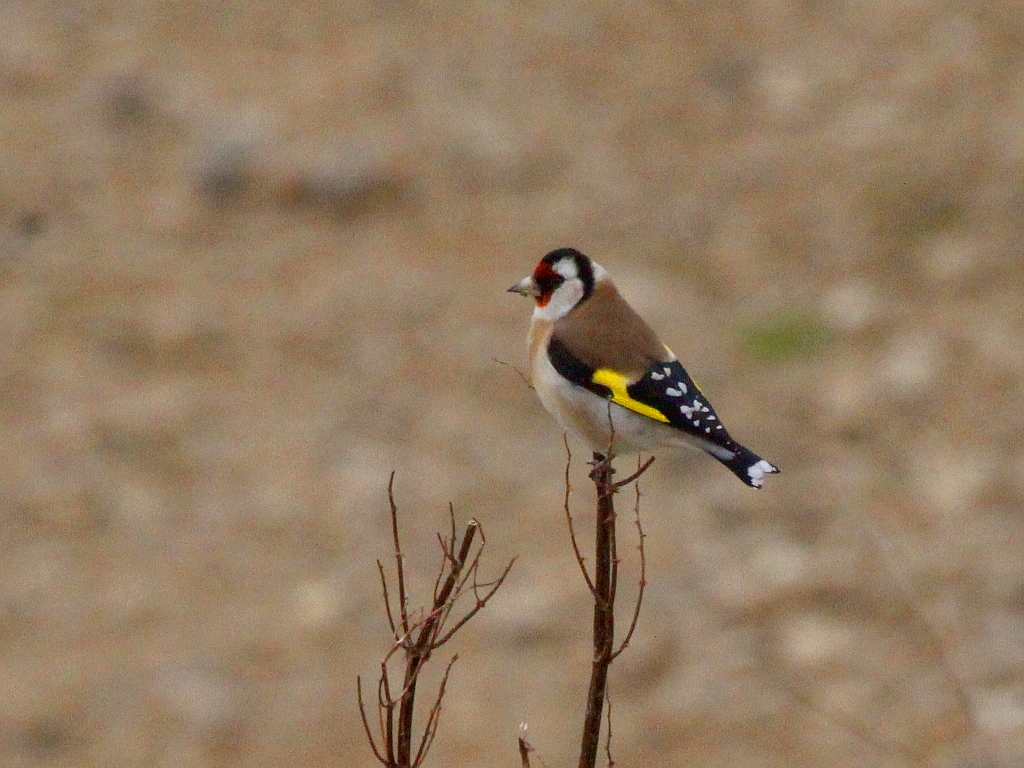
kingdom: Animalia
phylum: Chordata
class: Aves
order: Passeriformes
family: Fringillidae
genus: Carduelis
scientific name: Carduelis carduelis
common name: European goldfinch
